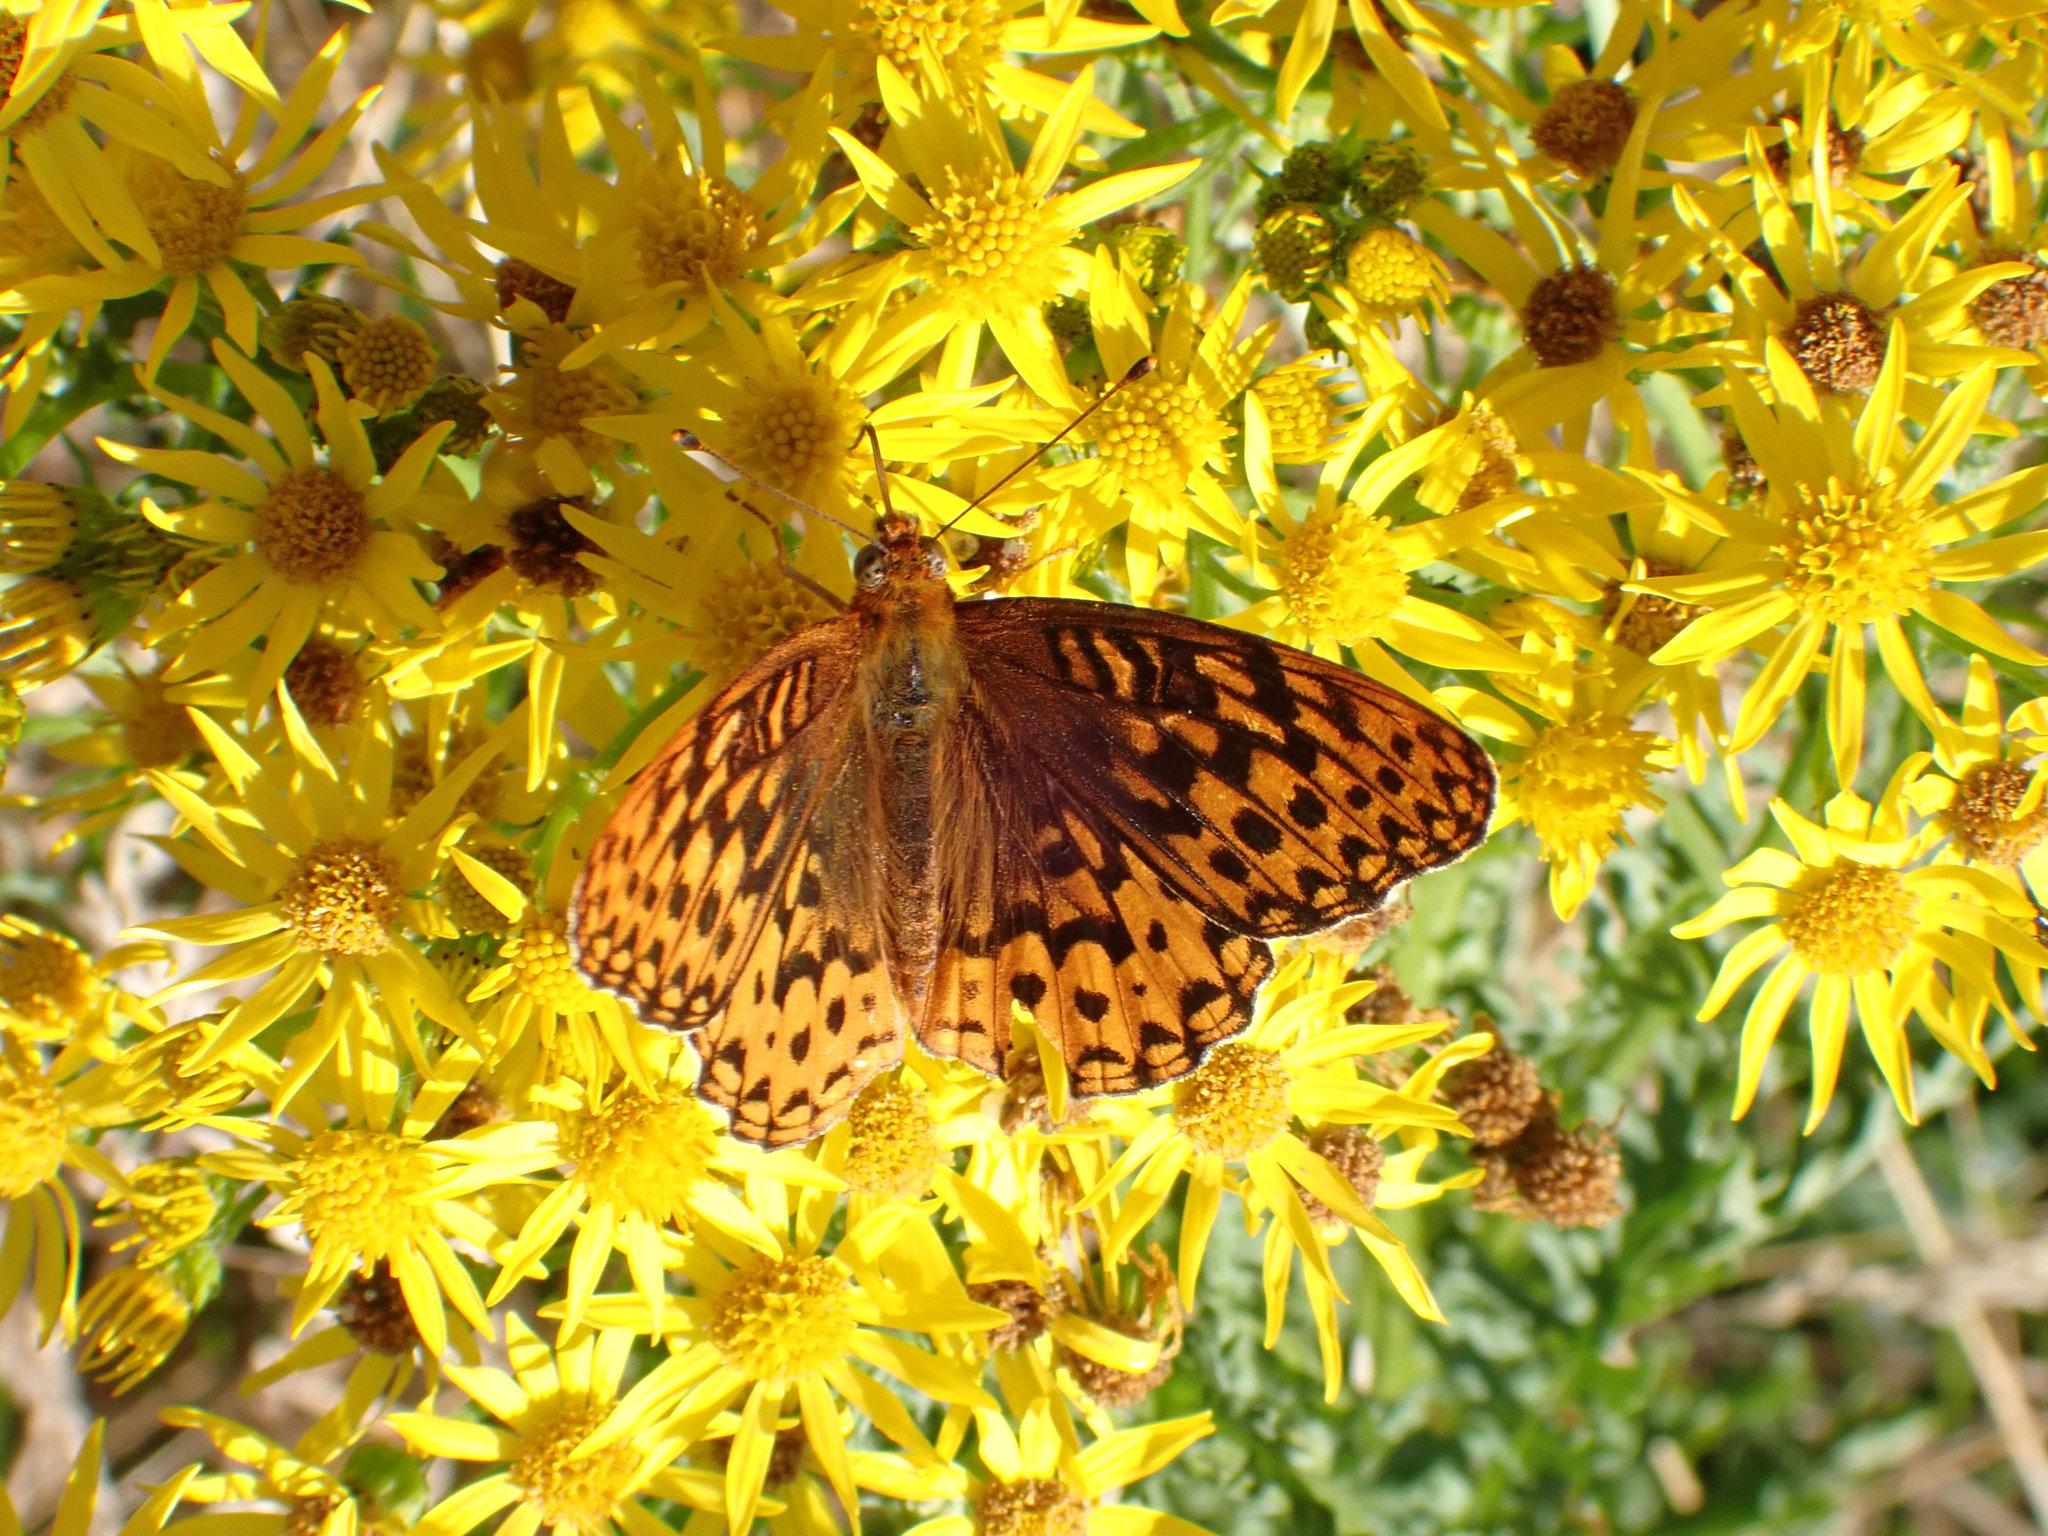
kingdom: Animalia
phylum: Arthropoda
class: Insecta
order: Lepidoptera
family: Nymphalidae
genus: Speyeria
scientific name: Speyeria hydaspe
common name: Hydaspe fritillary
